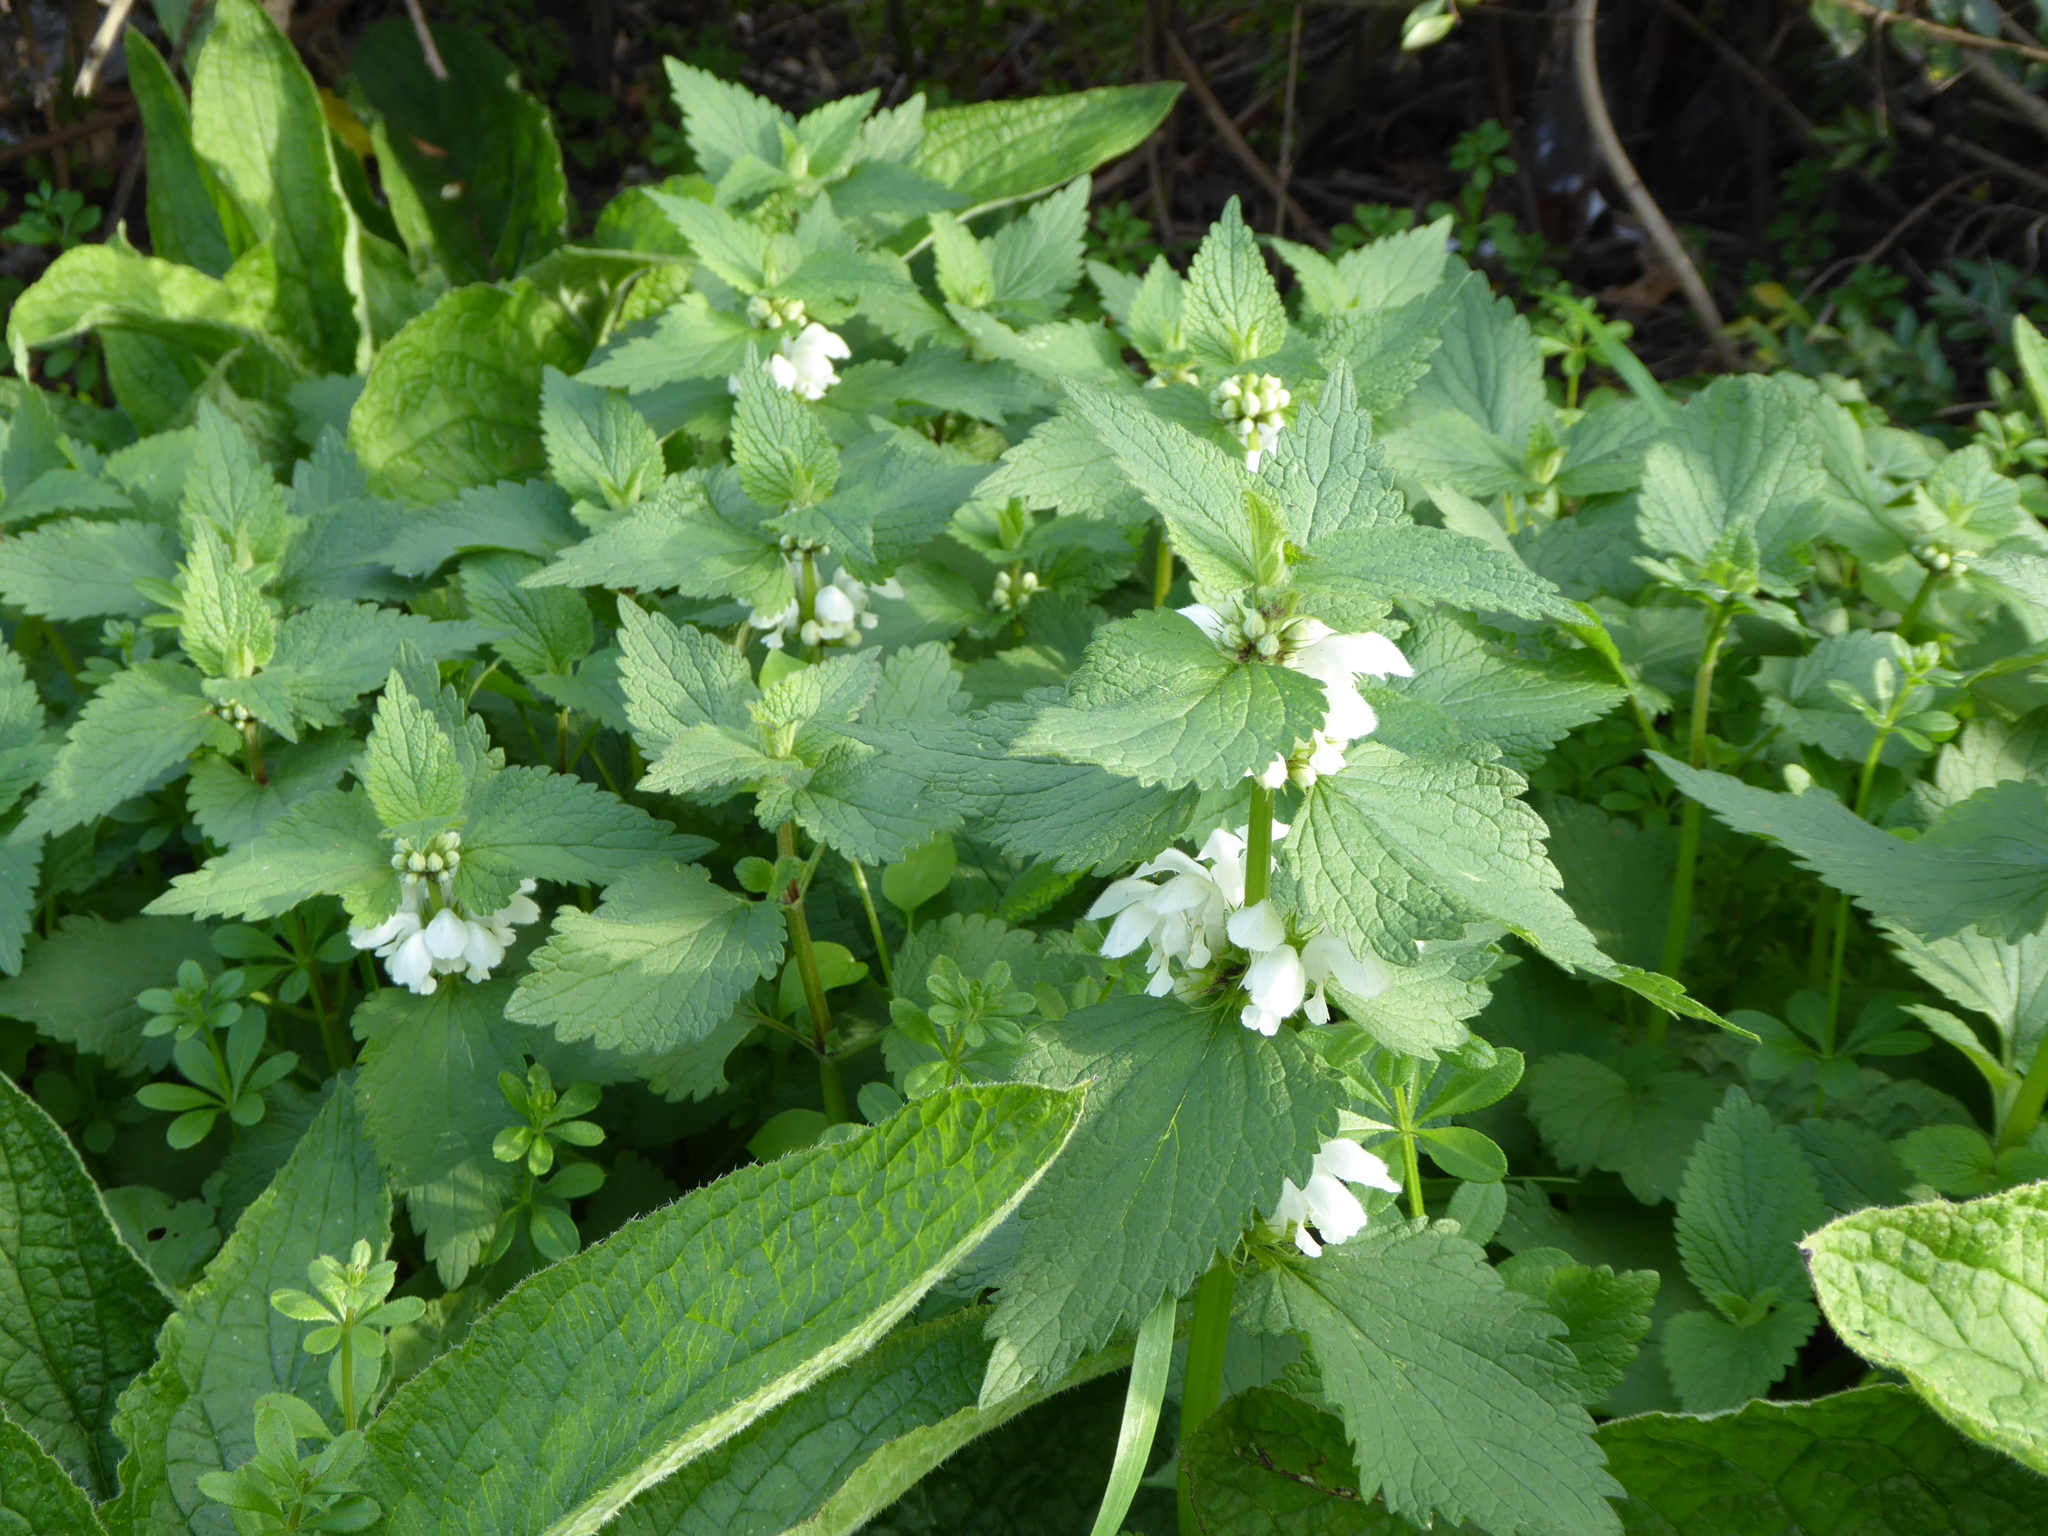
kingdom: Plantae
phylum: Tracheophyta
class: Magnoliopsida
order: Lamiales
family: Lamiaceae
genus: Lamium
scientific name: Lamium album
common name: White dead-nettle
